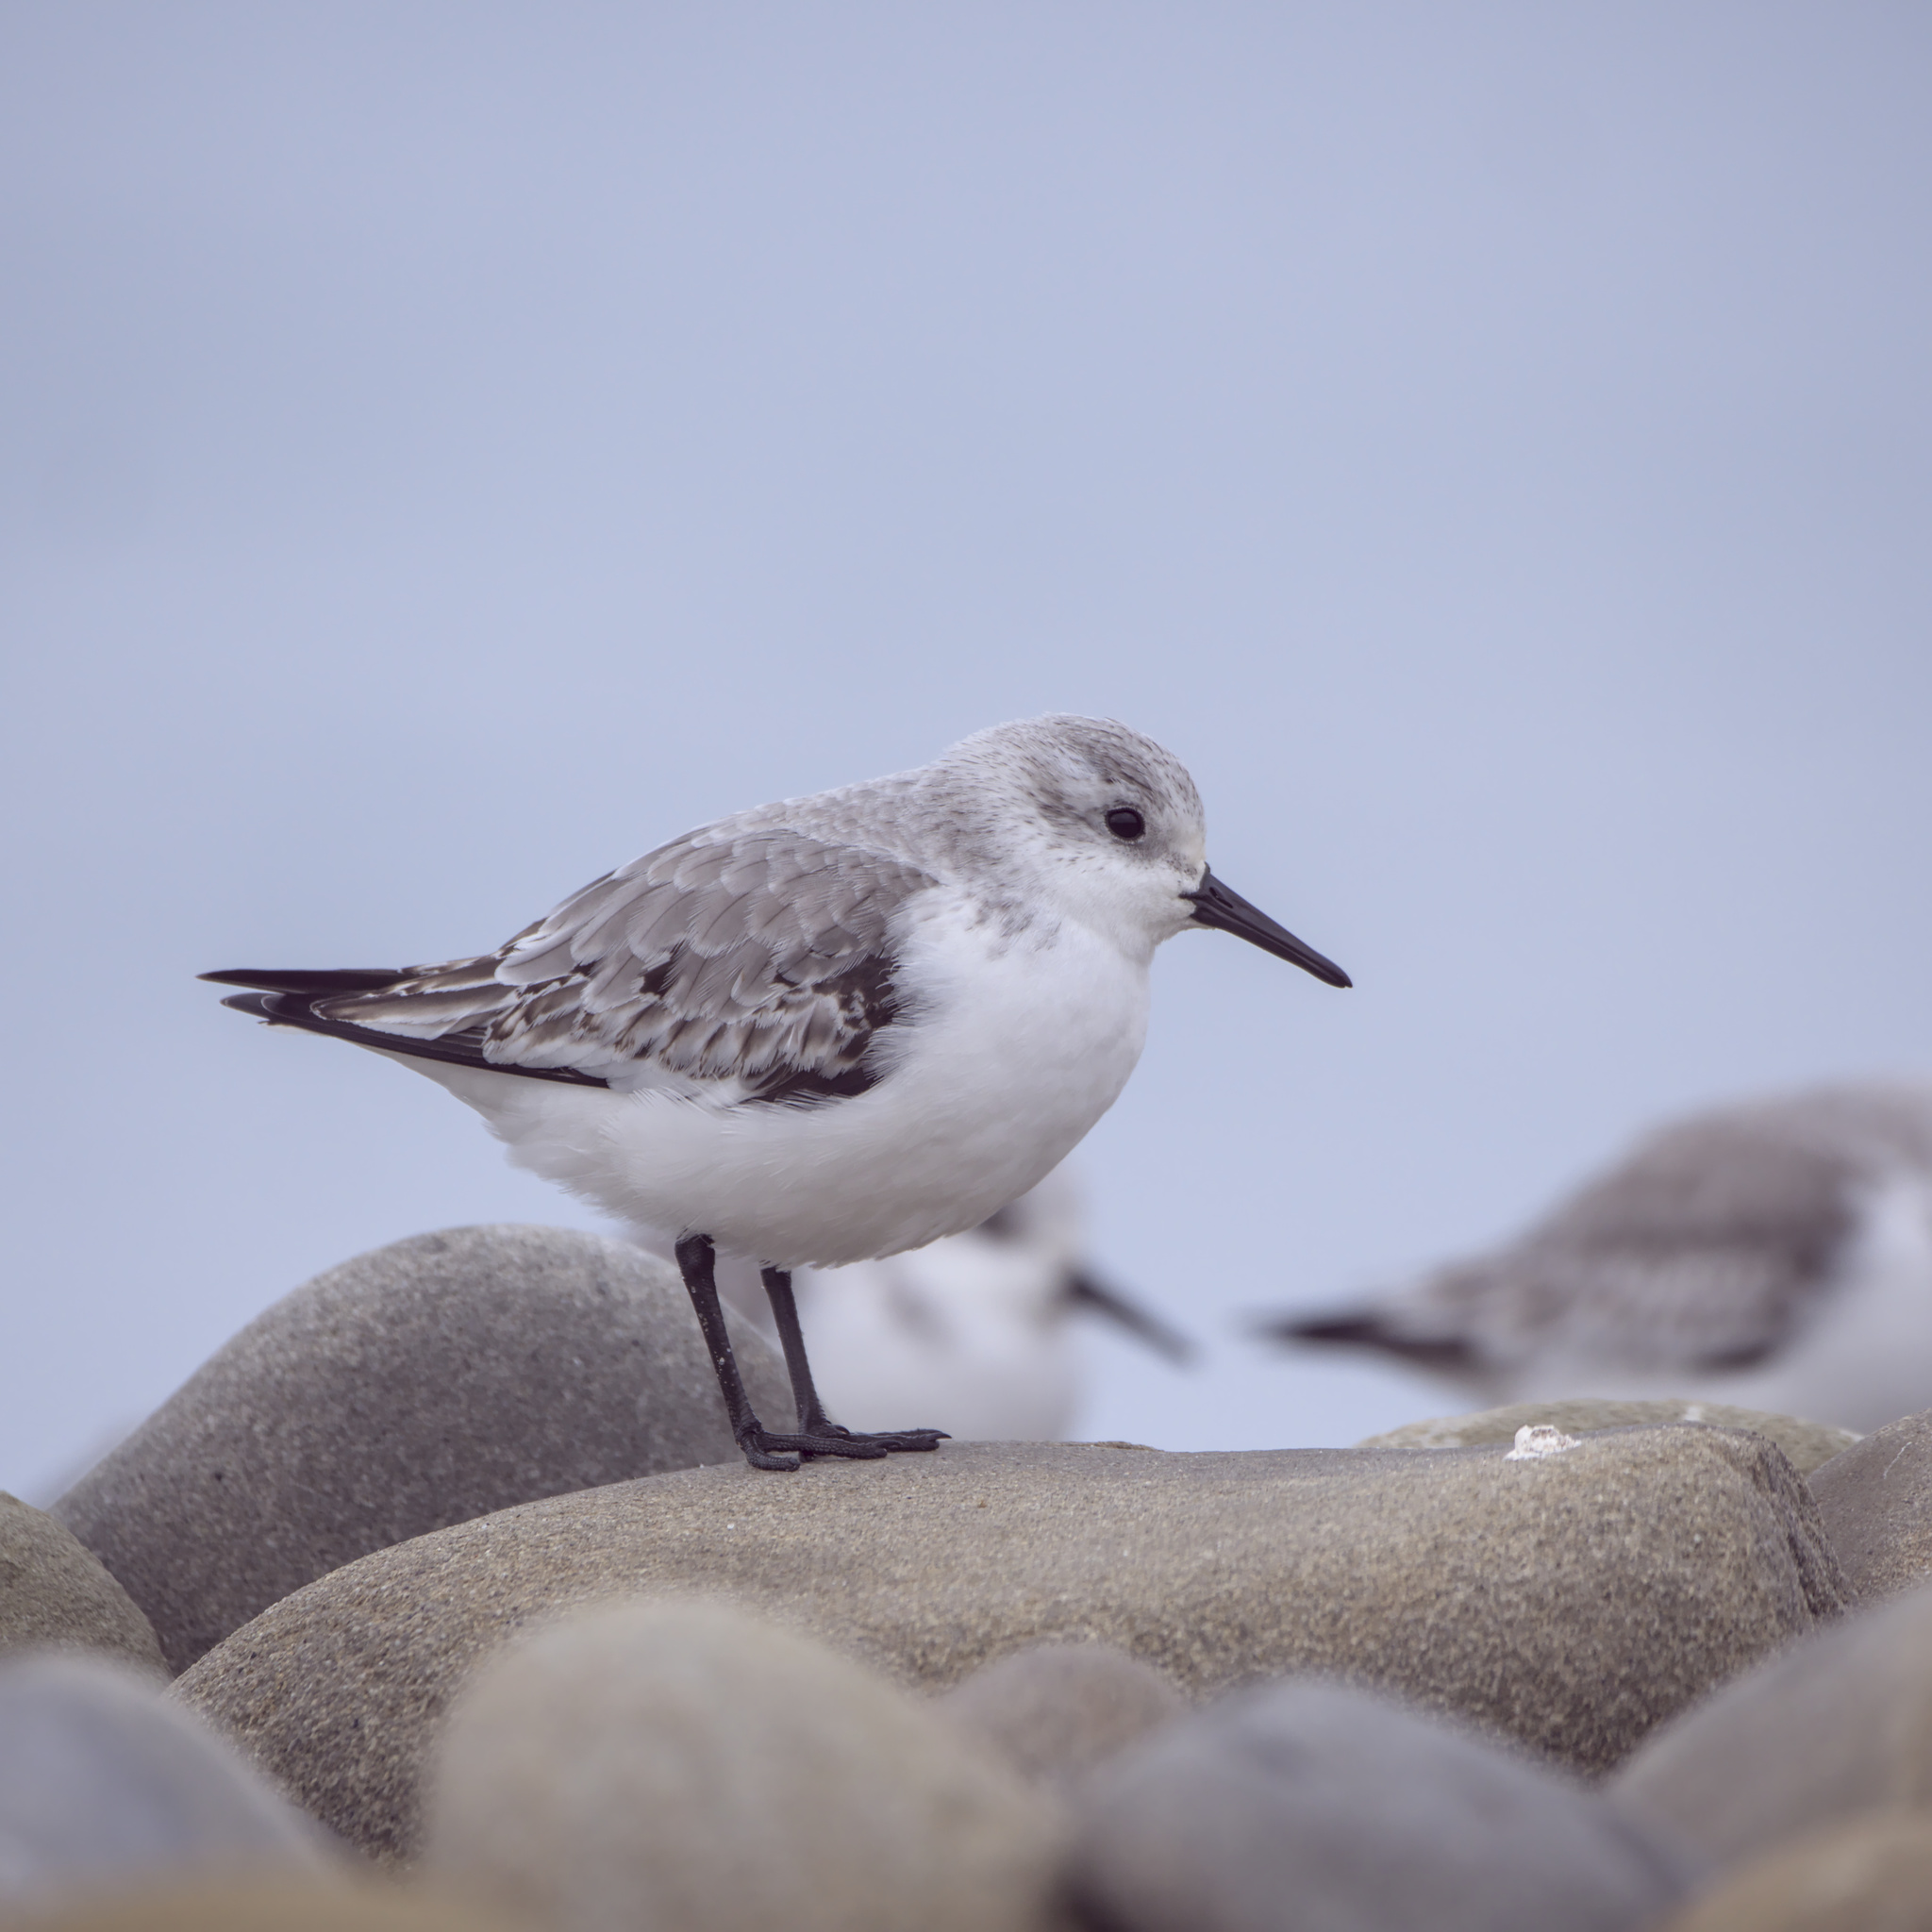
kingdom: Animalia
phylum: Chordata
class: Aves
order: Charadriiformes
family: Scolopacidae
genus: Calidris
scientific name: Calidris alba
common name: Sanderling
